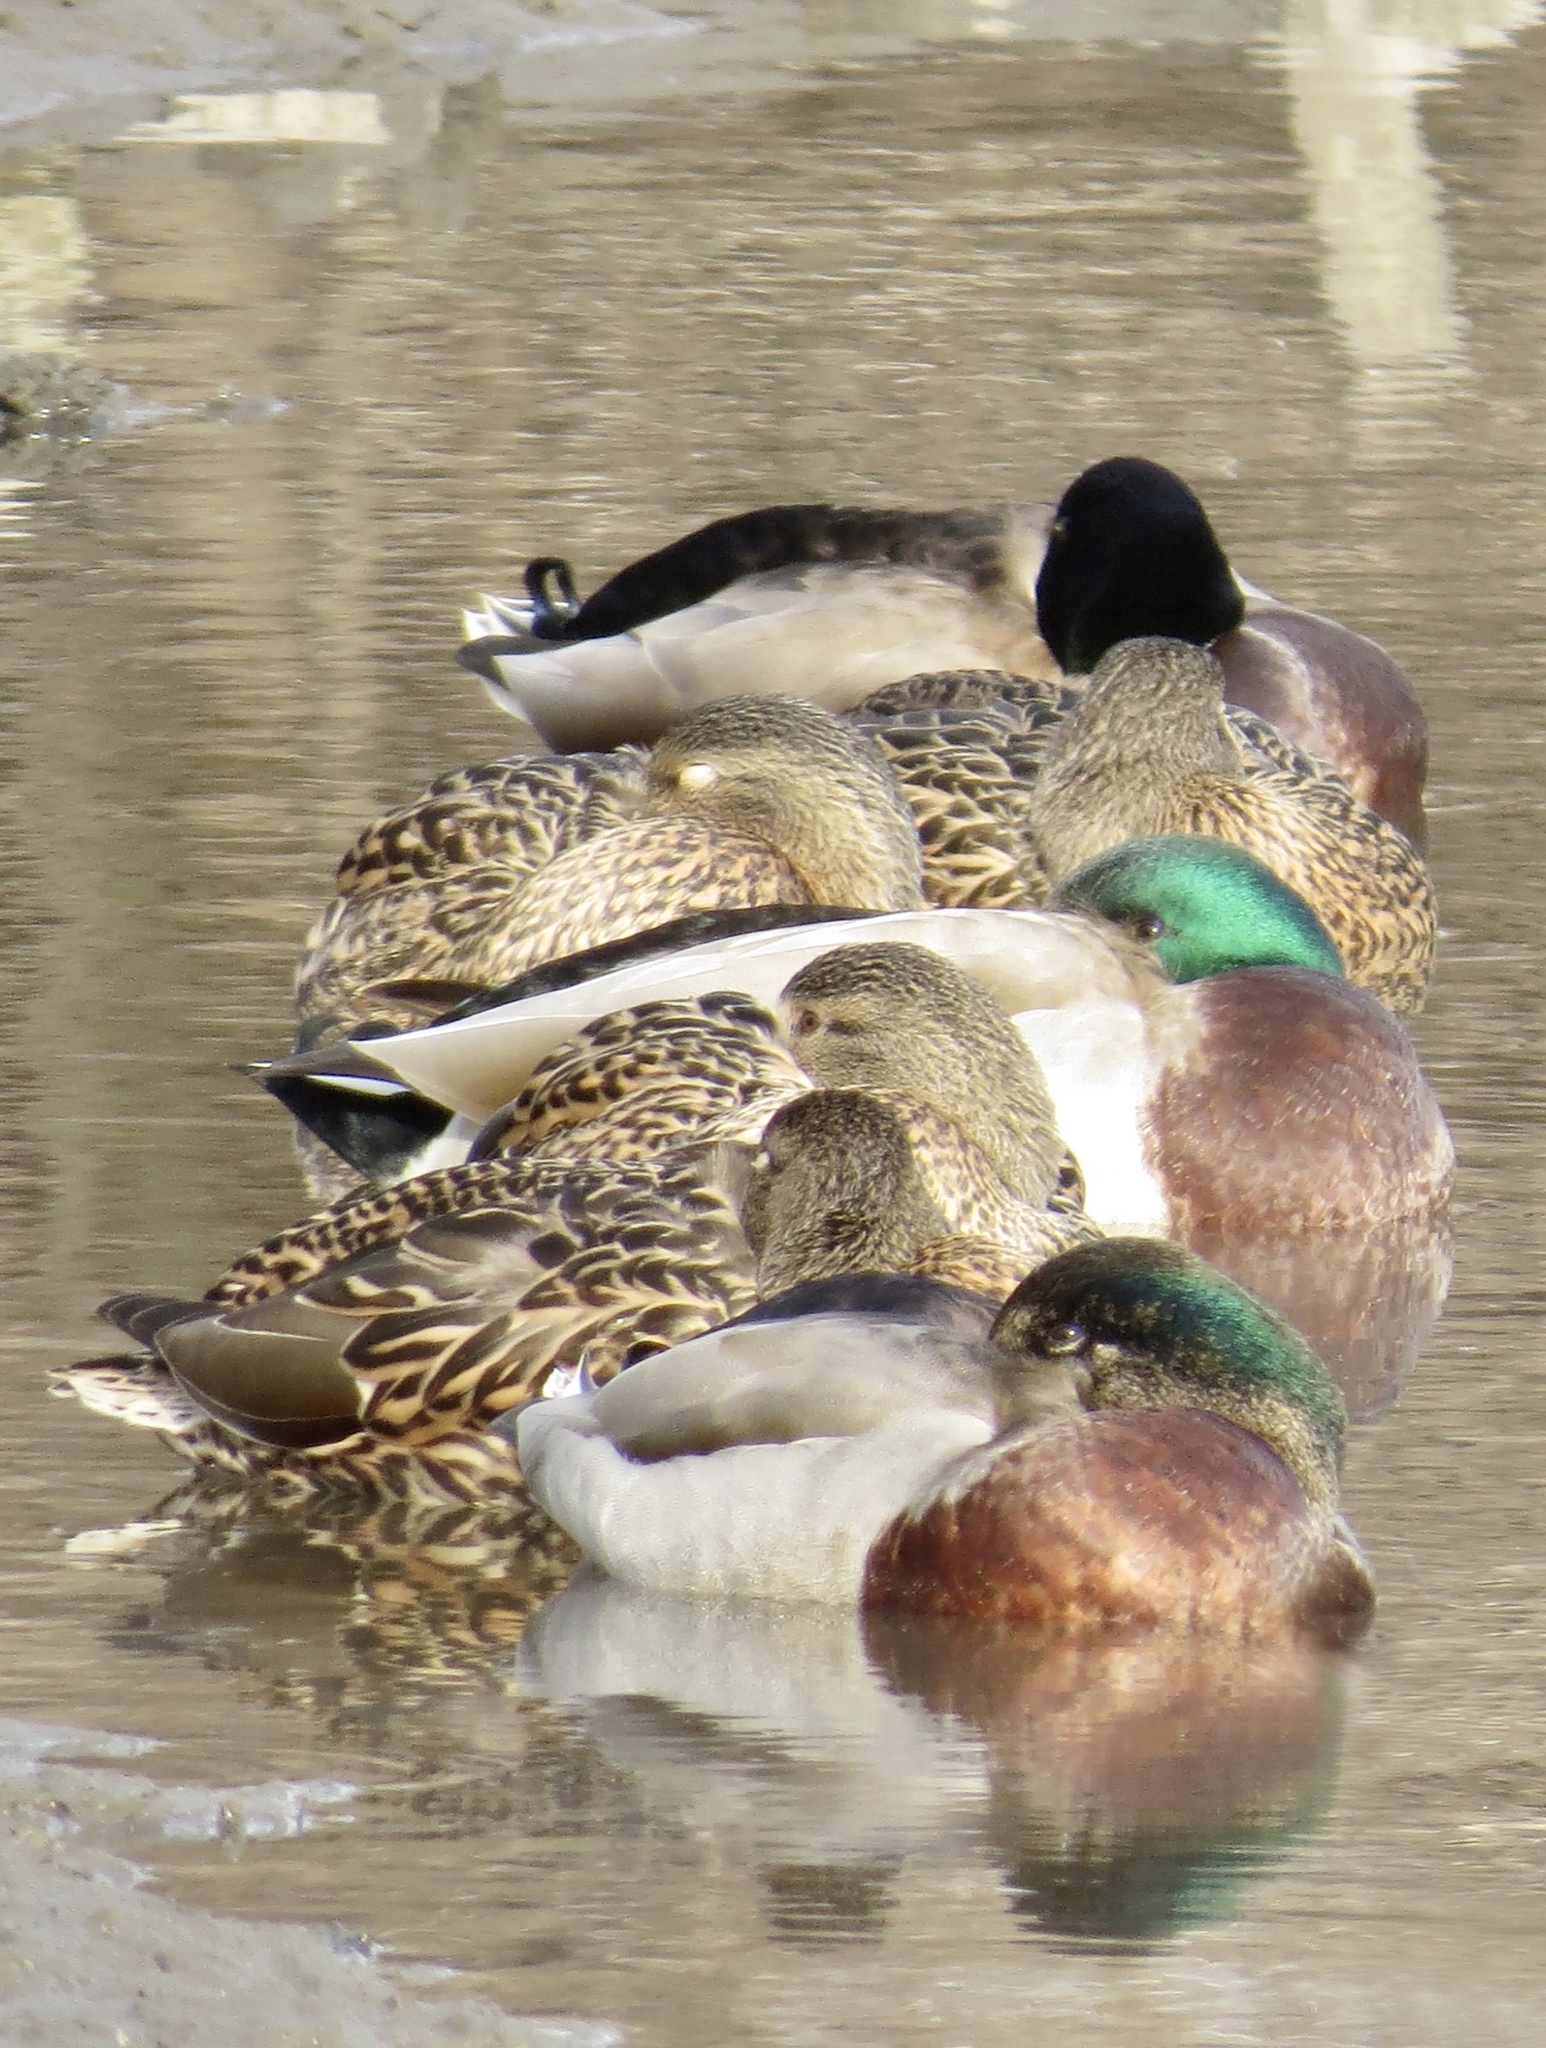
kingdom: Animalia
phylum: Chordata
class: Aves
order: Anseriformes
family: Anatidae
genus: Anas
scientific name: Anas platyrhynchos
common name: Mallard
